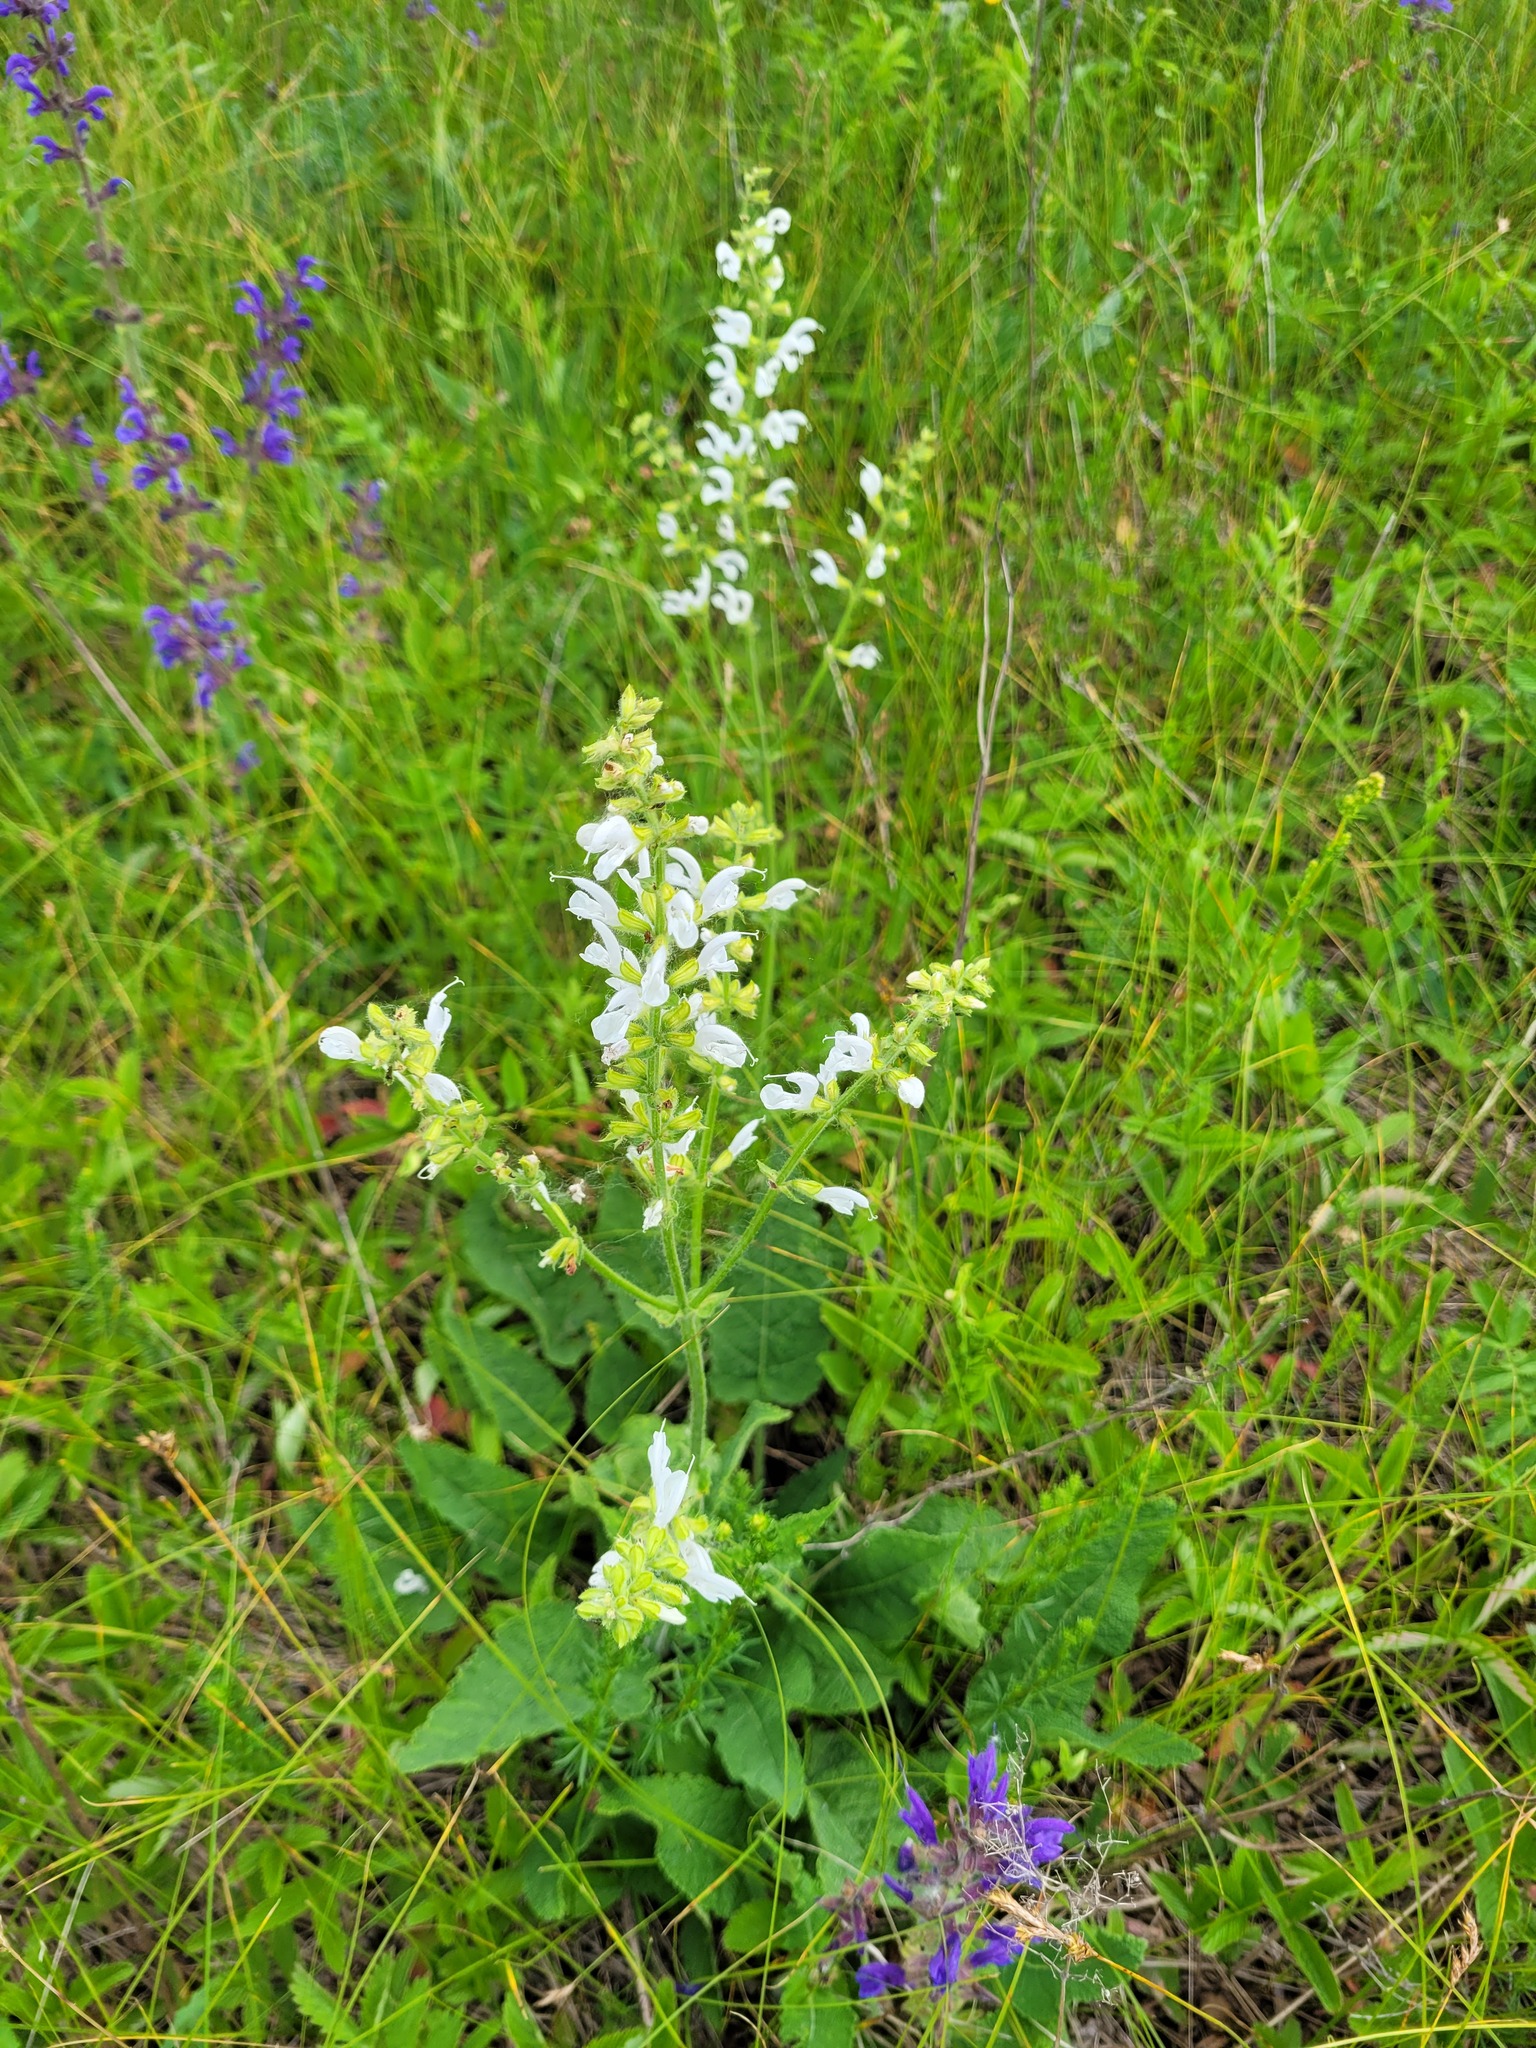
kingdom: Plantae
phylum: Tracheophyta
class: Magnoliopsida
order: Lamiales
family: Lamiaceae
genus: Salvia
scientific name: Salvia pratensis
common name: Meadow sage
